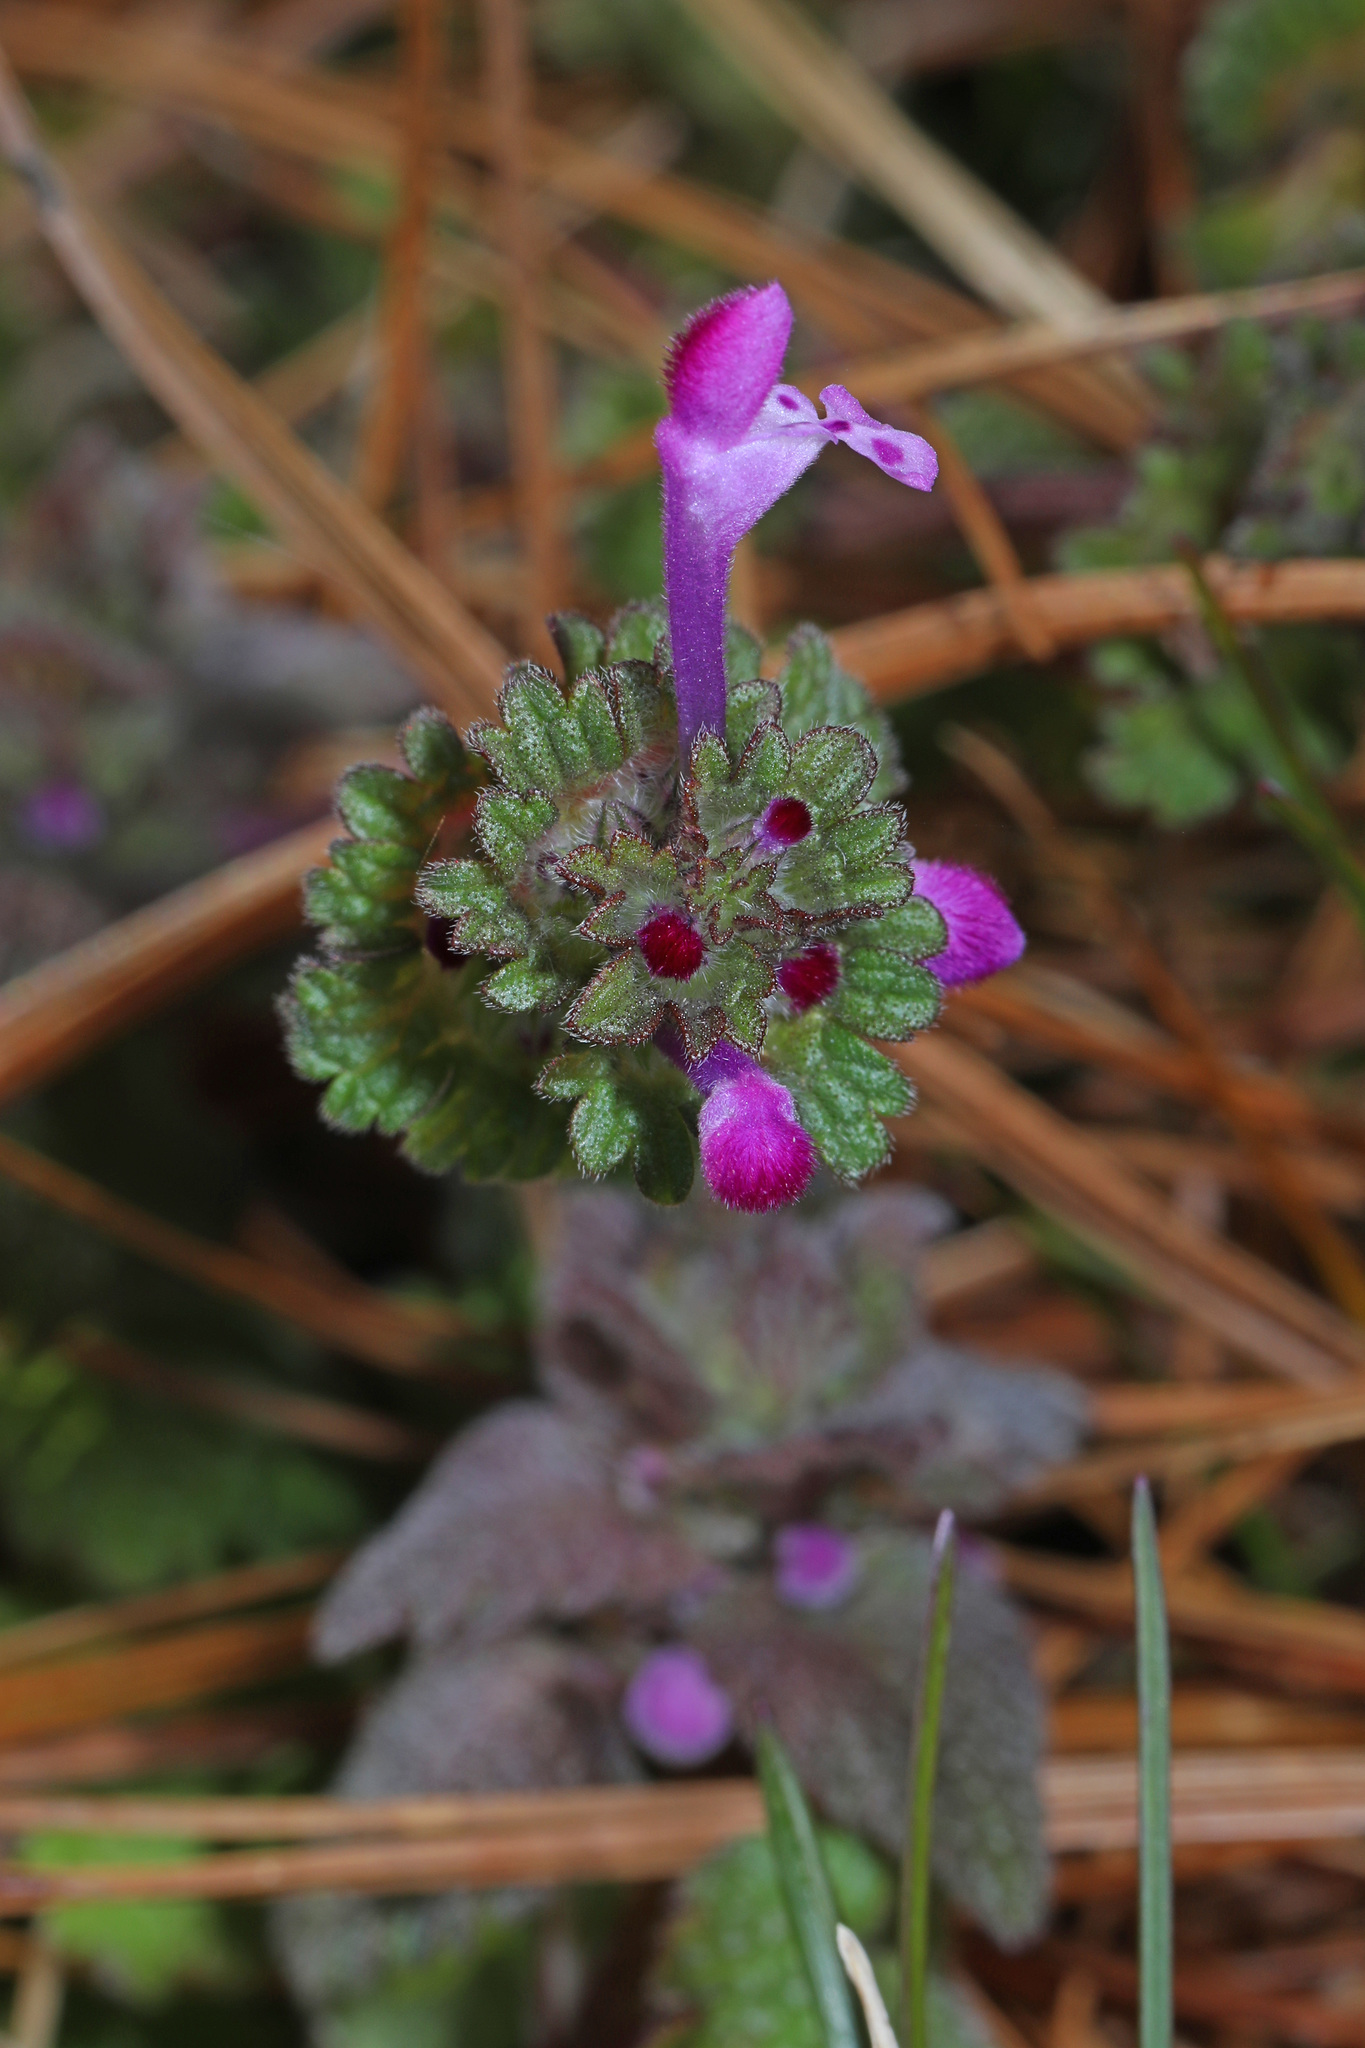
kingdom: Plantae
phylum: Tracheophyta
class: Magnoliopsida
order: Lamiales
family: Lamiaceae
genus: Lamium
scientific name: Lamium amplexicaule
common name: Henbit dead-nettle
